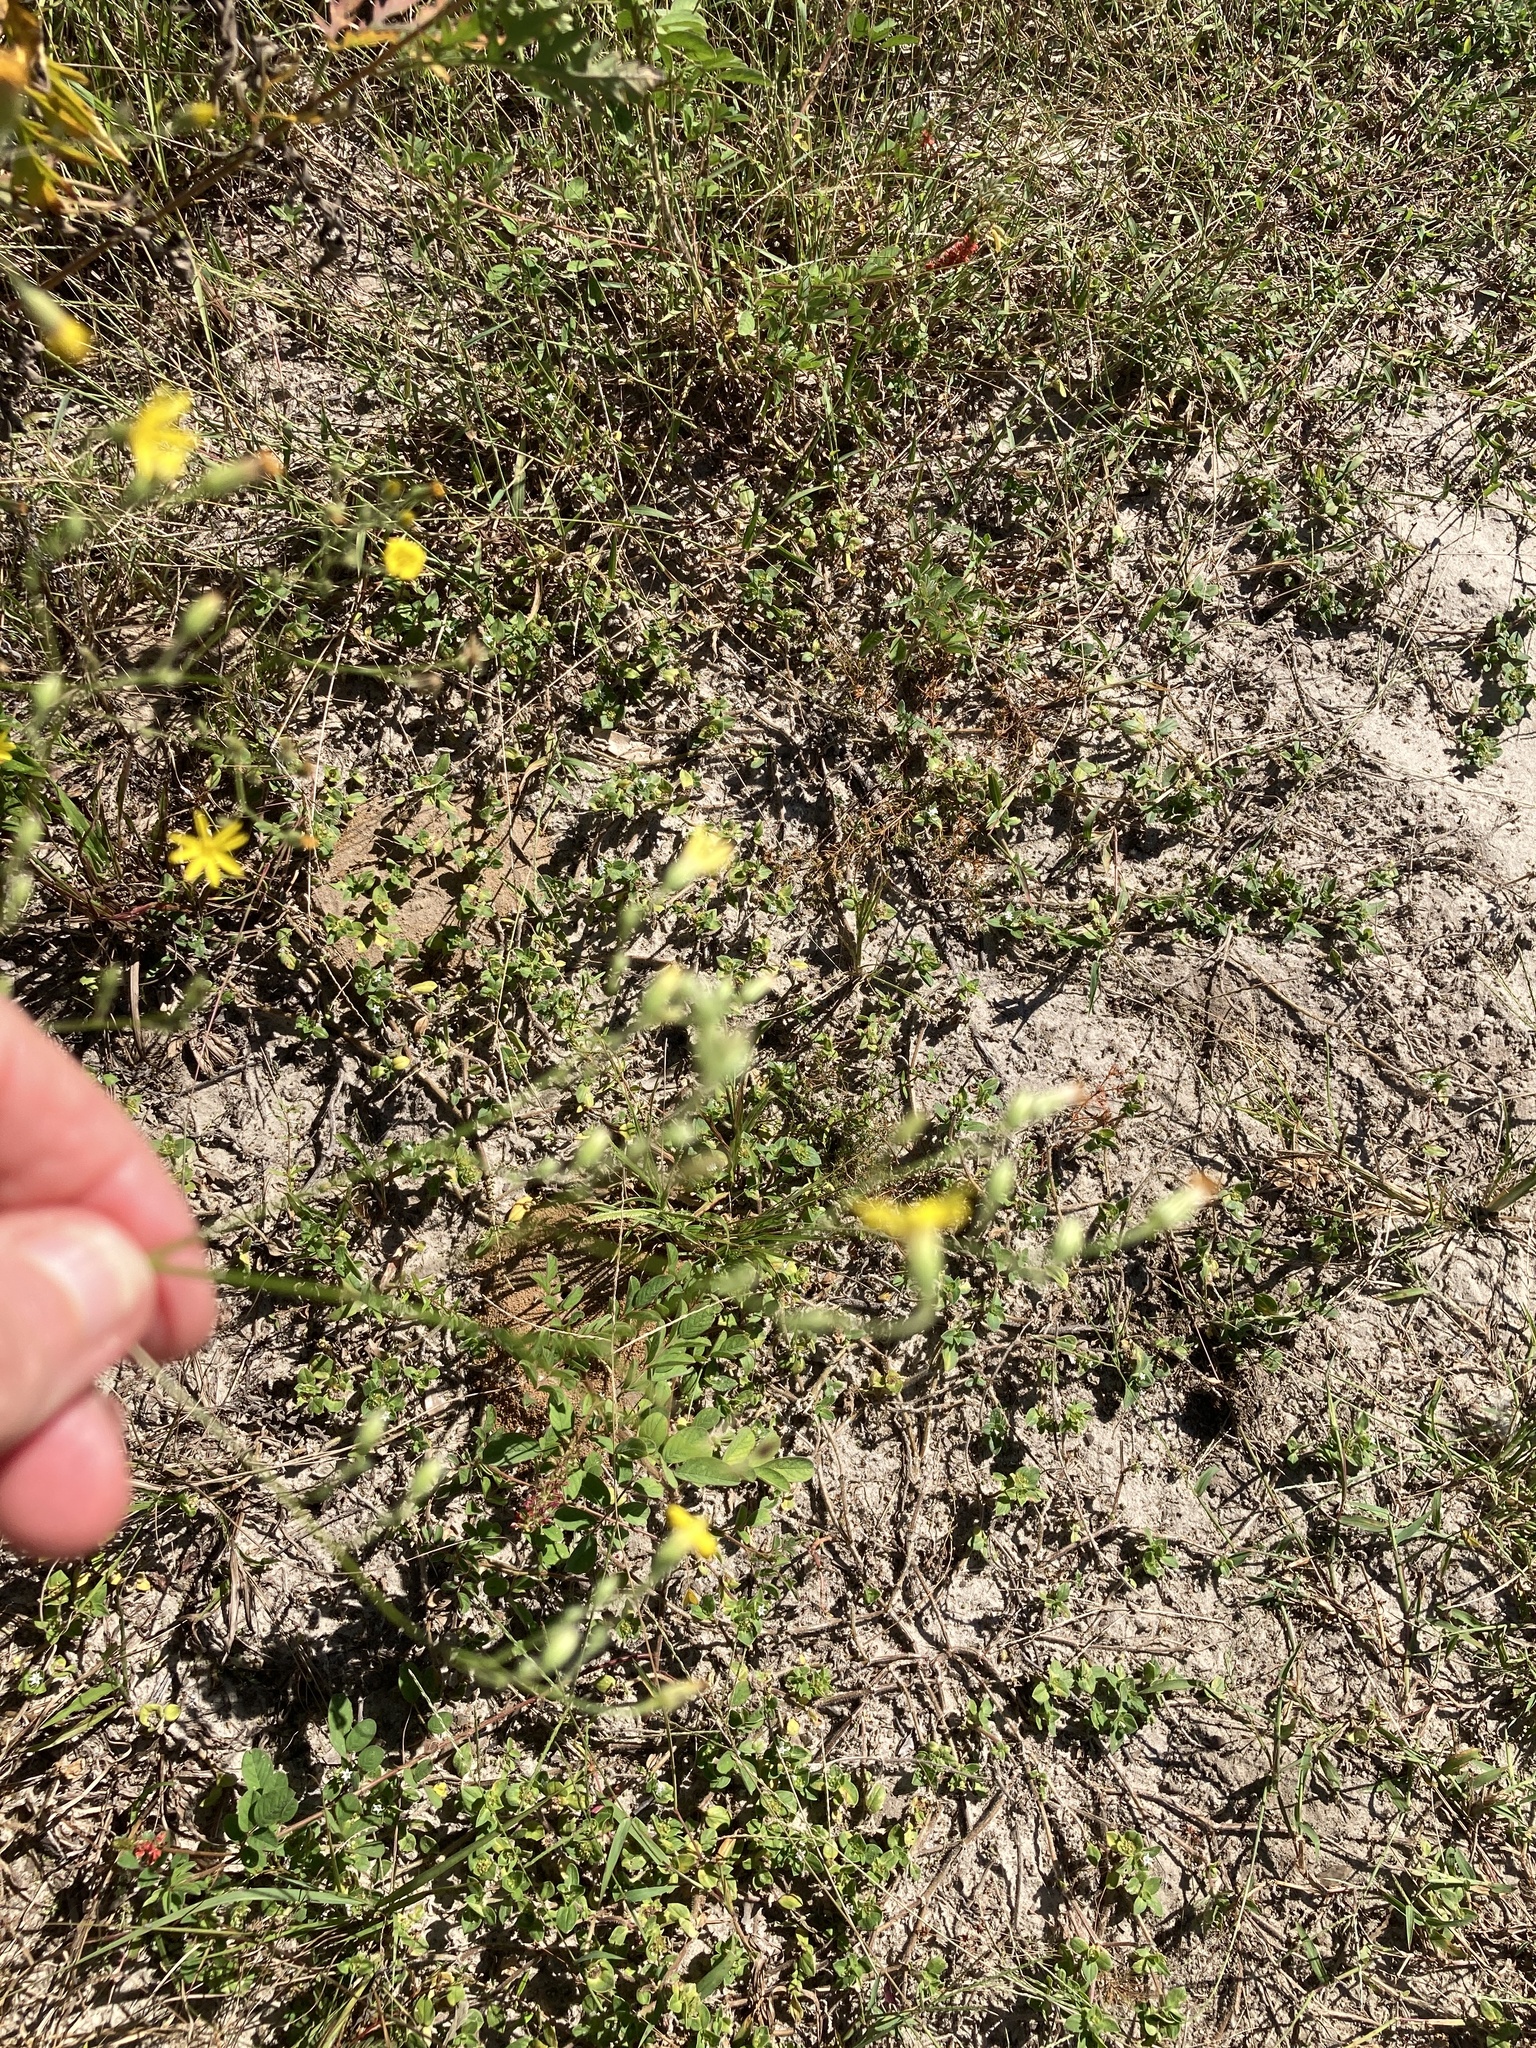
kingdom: Plantae
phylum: Tracheophyta
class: Magnoliopsida
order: Asterales
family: Asteraceae
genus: Pityopsis
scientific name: Pityopsis aspera
